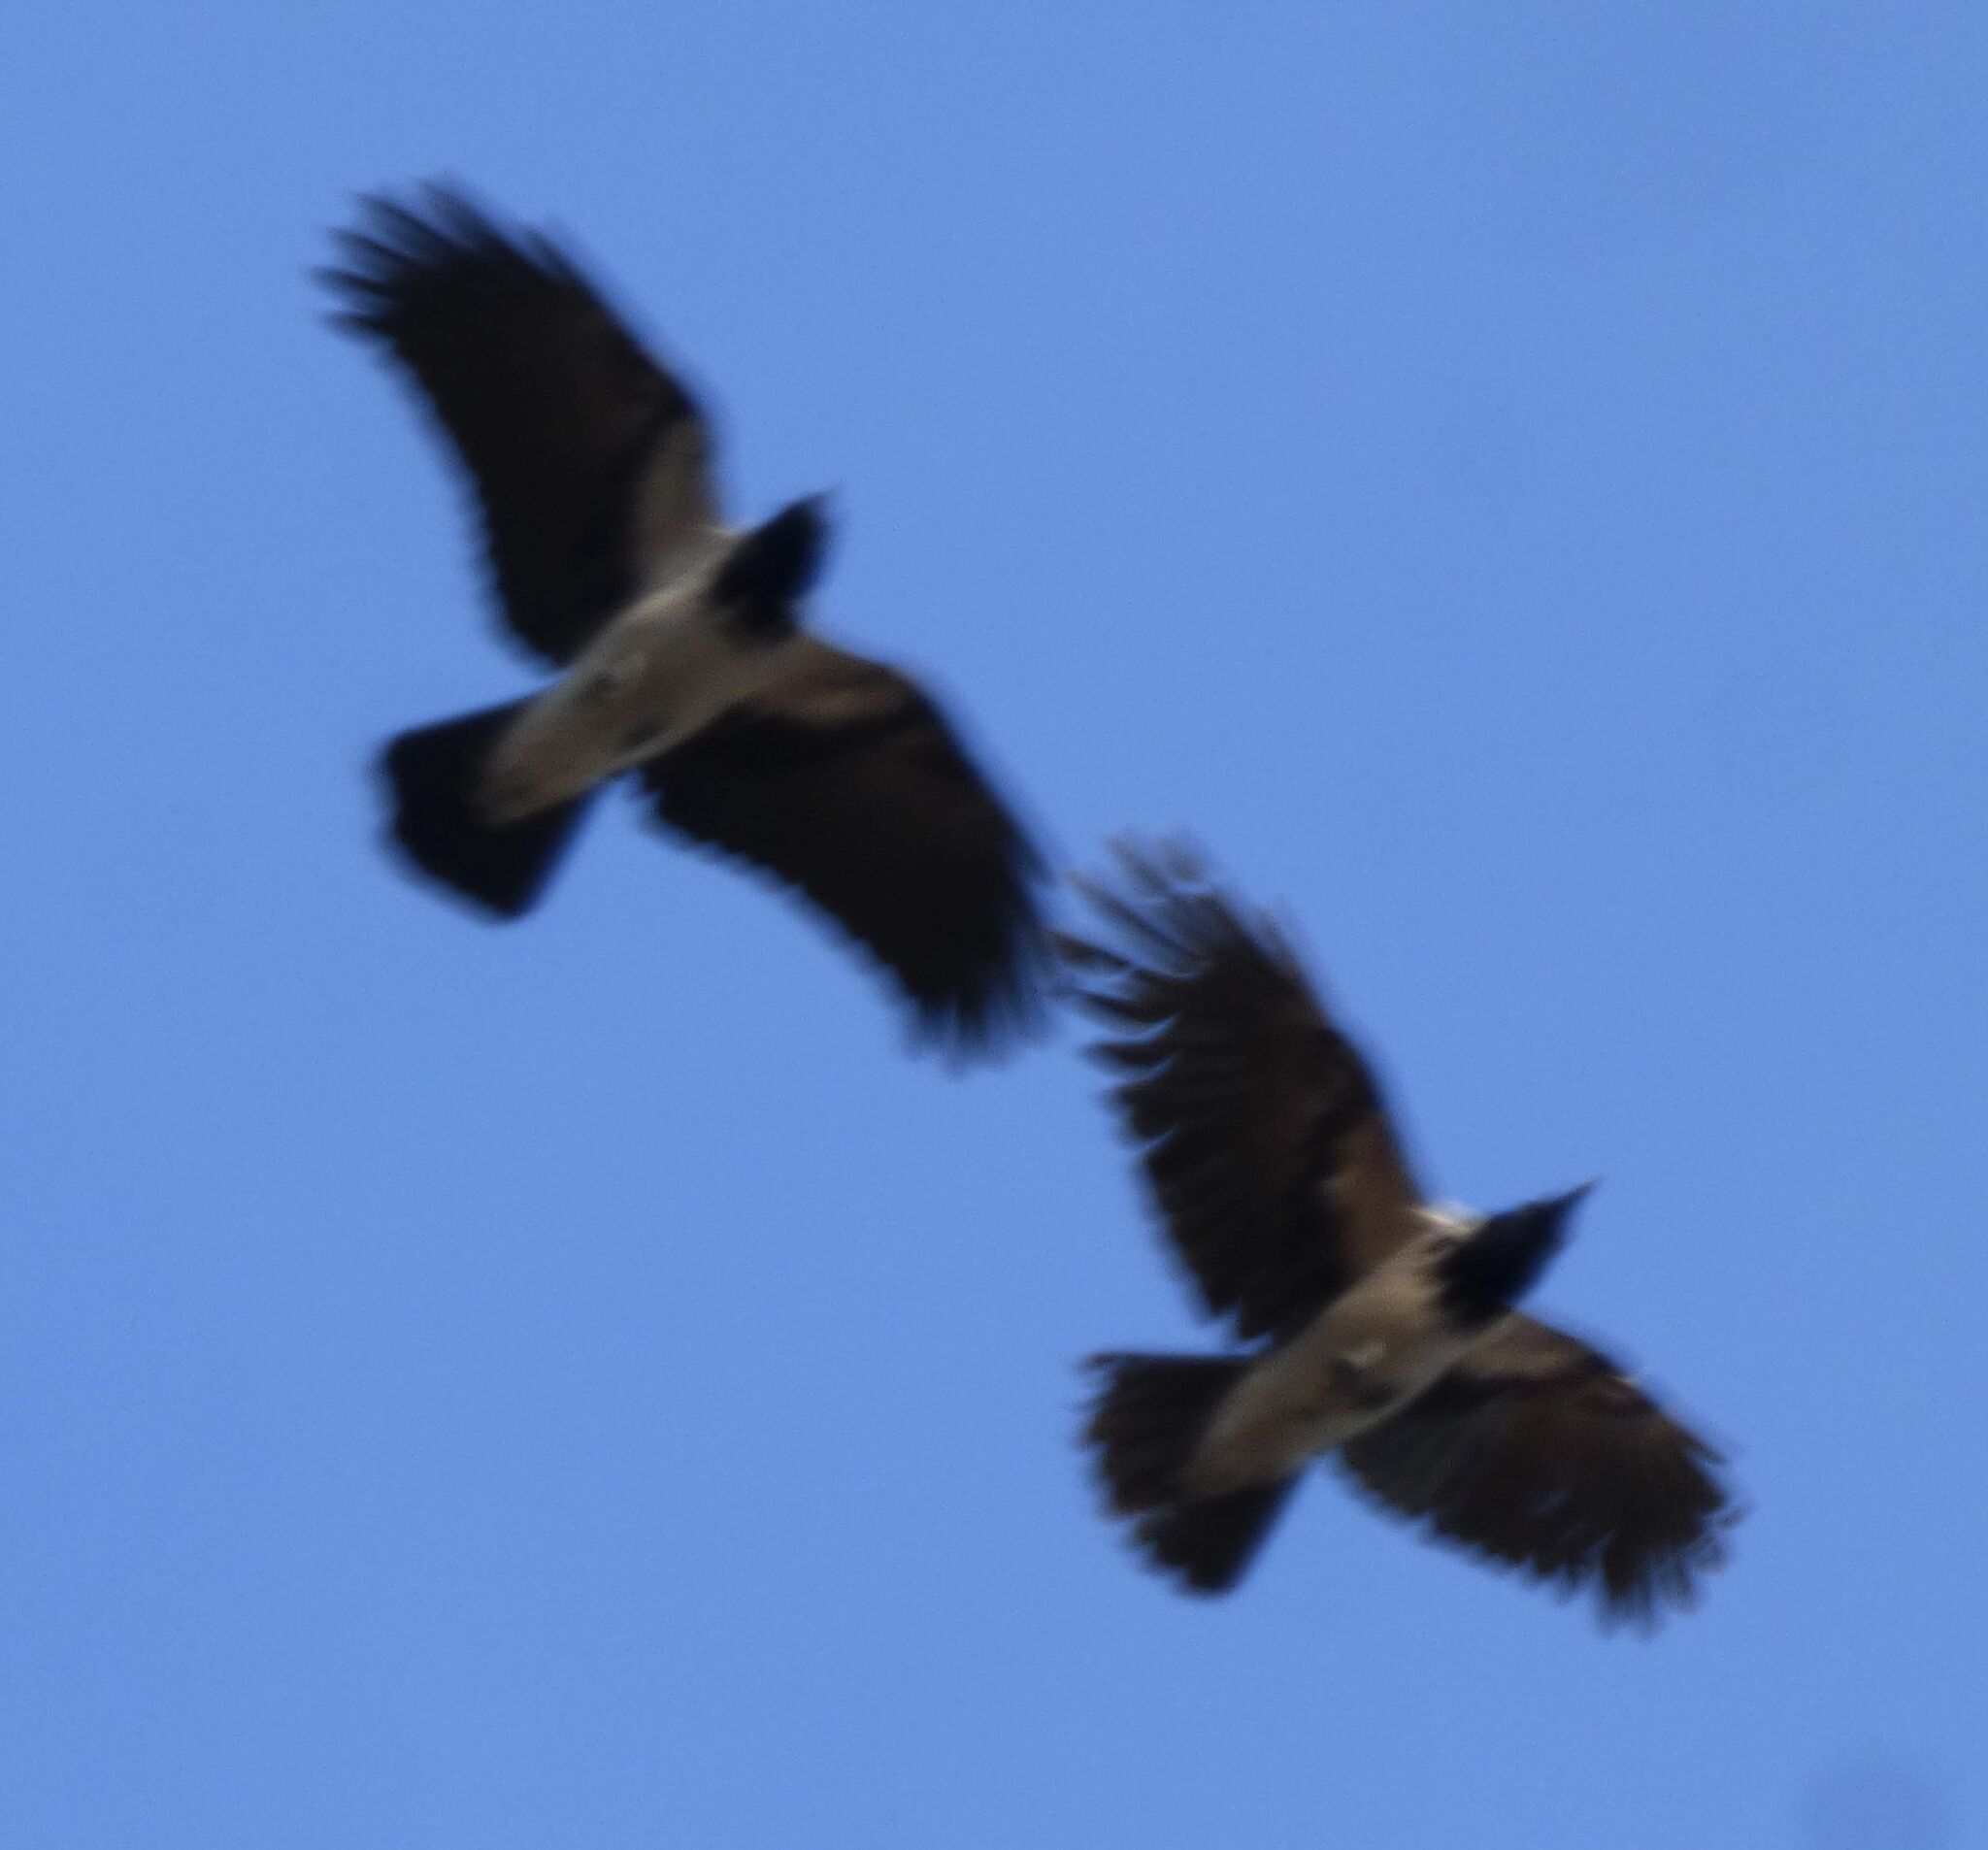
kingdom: Animalia
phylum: Chordata
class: Aves
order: Passeriformes
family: Corvidae
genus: Corvus
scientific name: Corvus cornix
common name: Hooded crow
